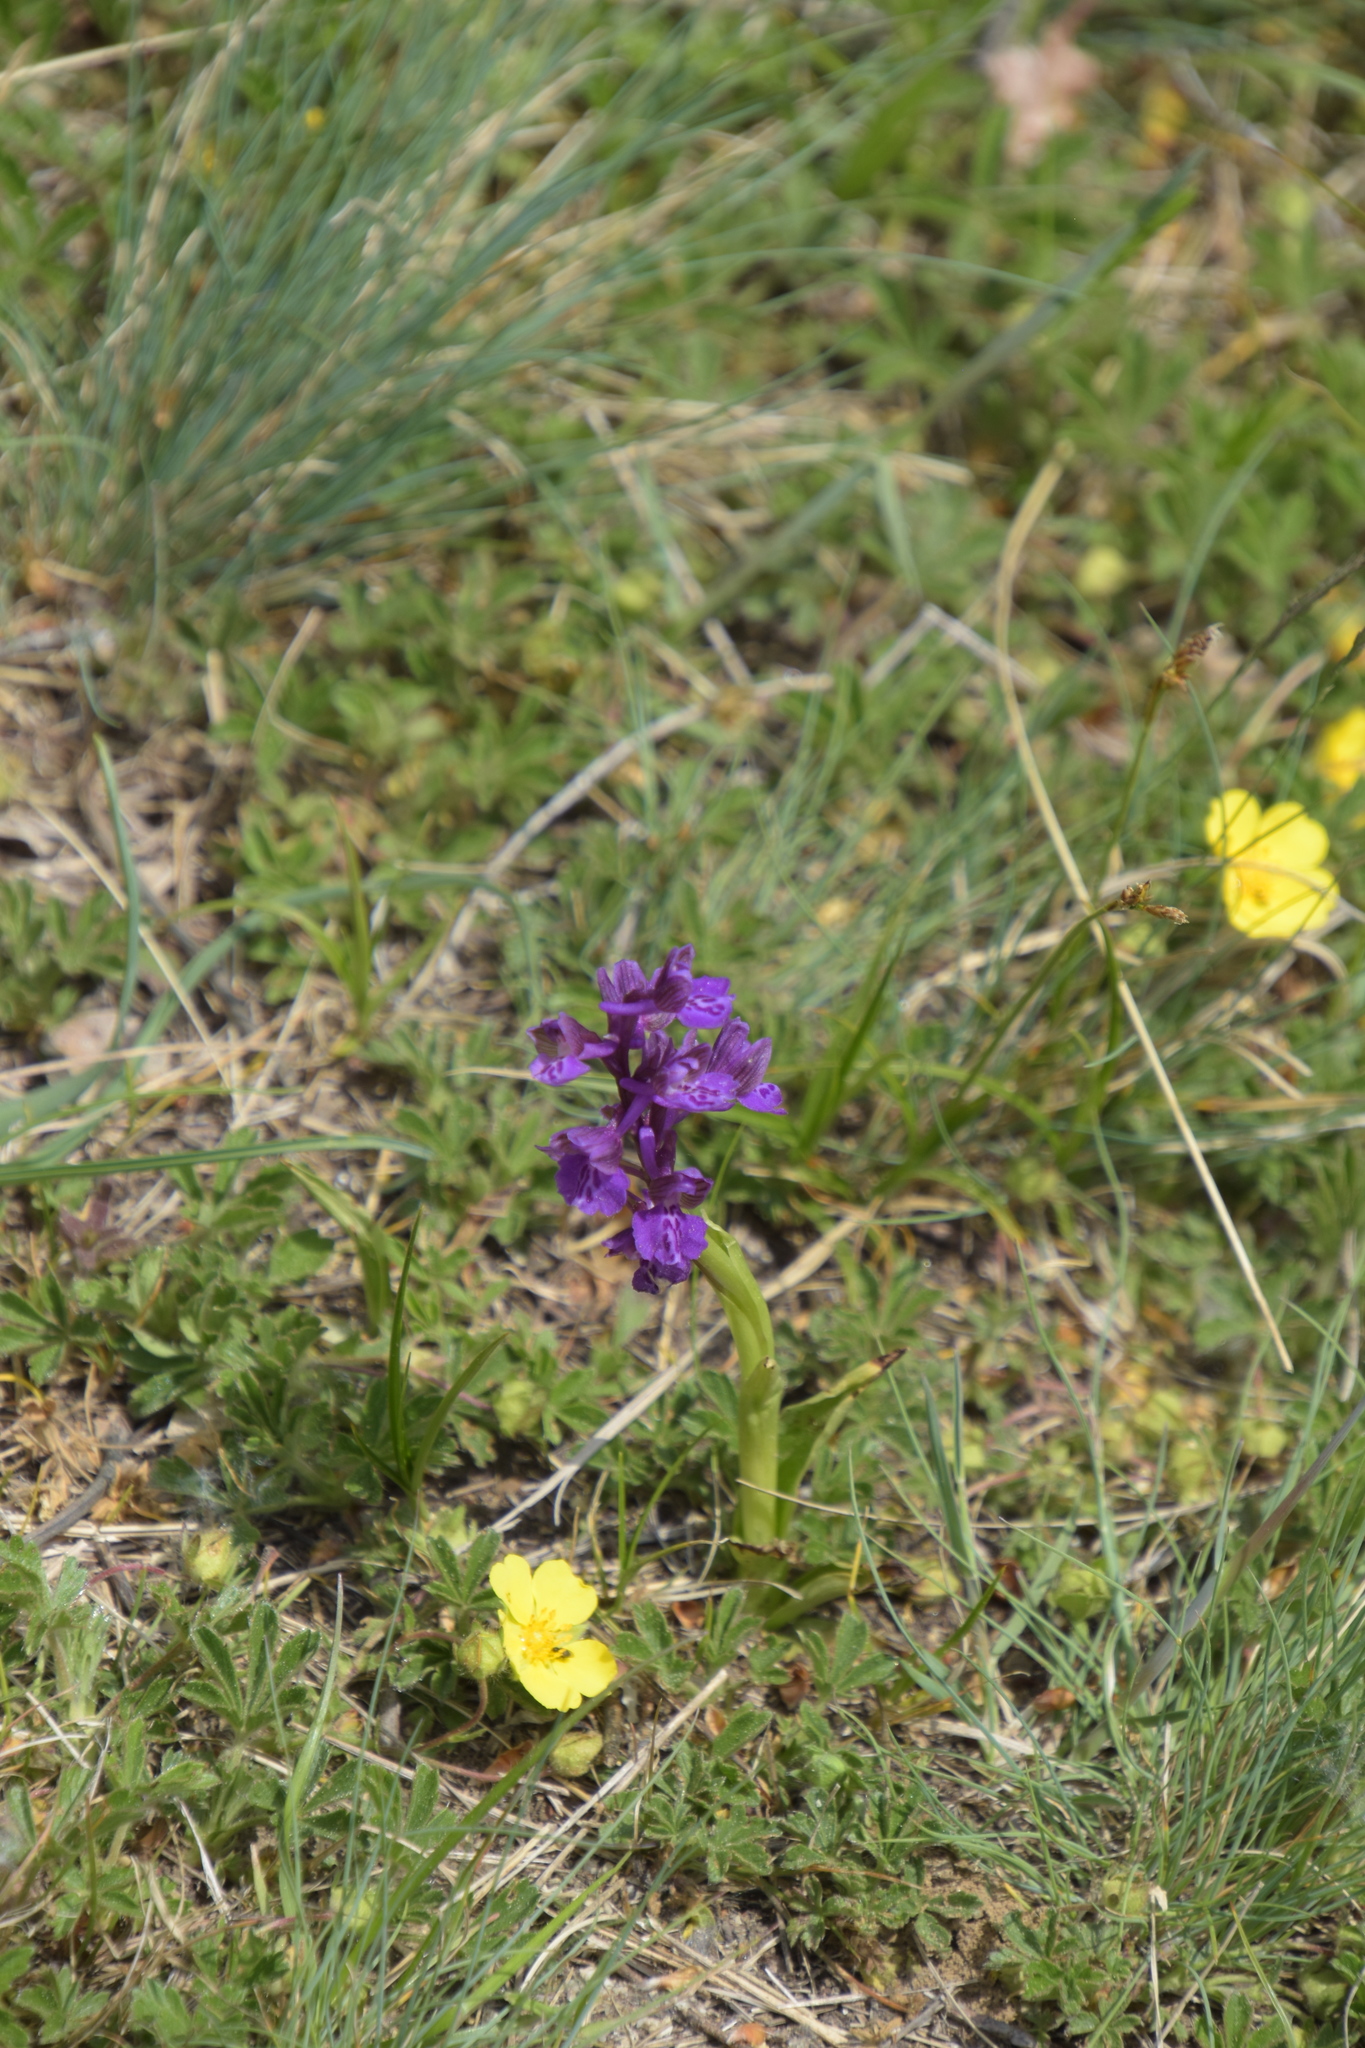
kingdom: Plantae
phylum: Tracheophyta
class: Liliopsida
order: Asparagales
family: Orchidaceae
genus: Anacamptis
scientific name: Anacamptis morio
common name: Green-winged orchid
